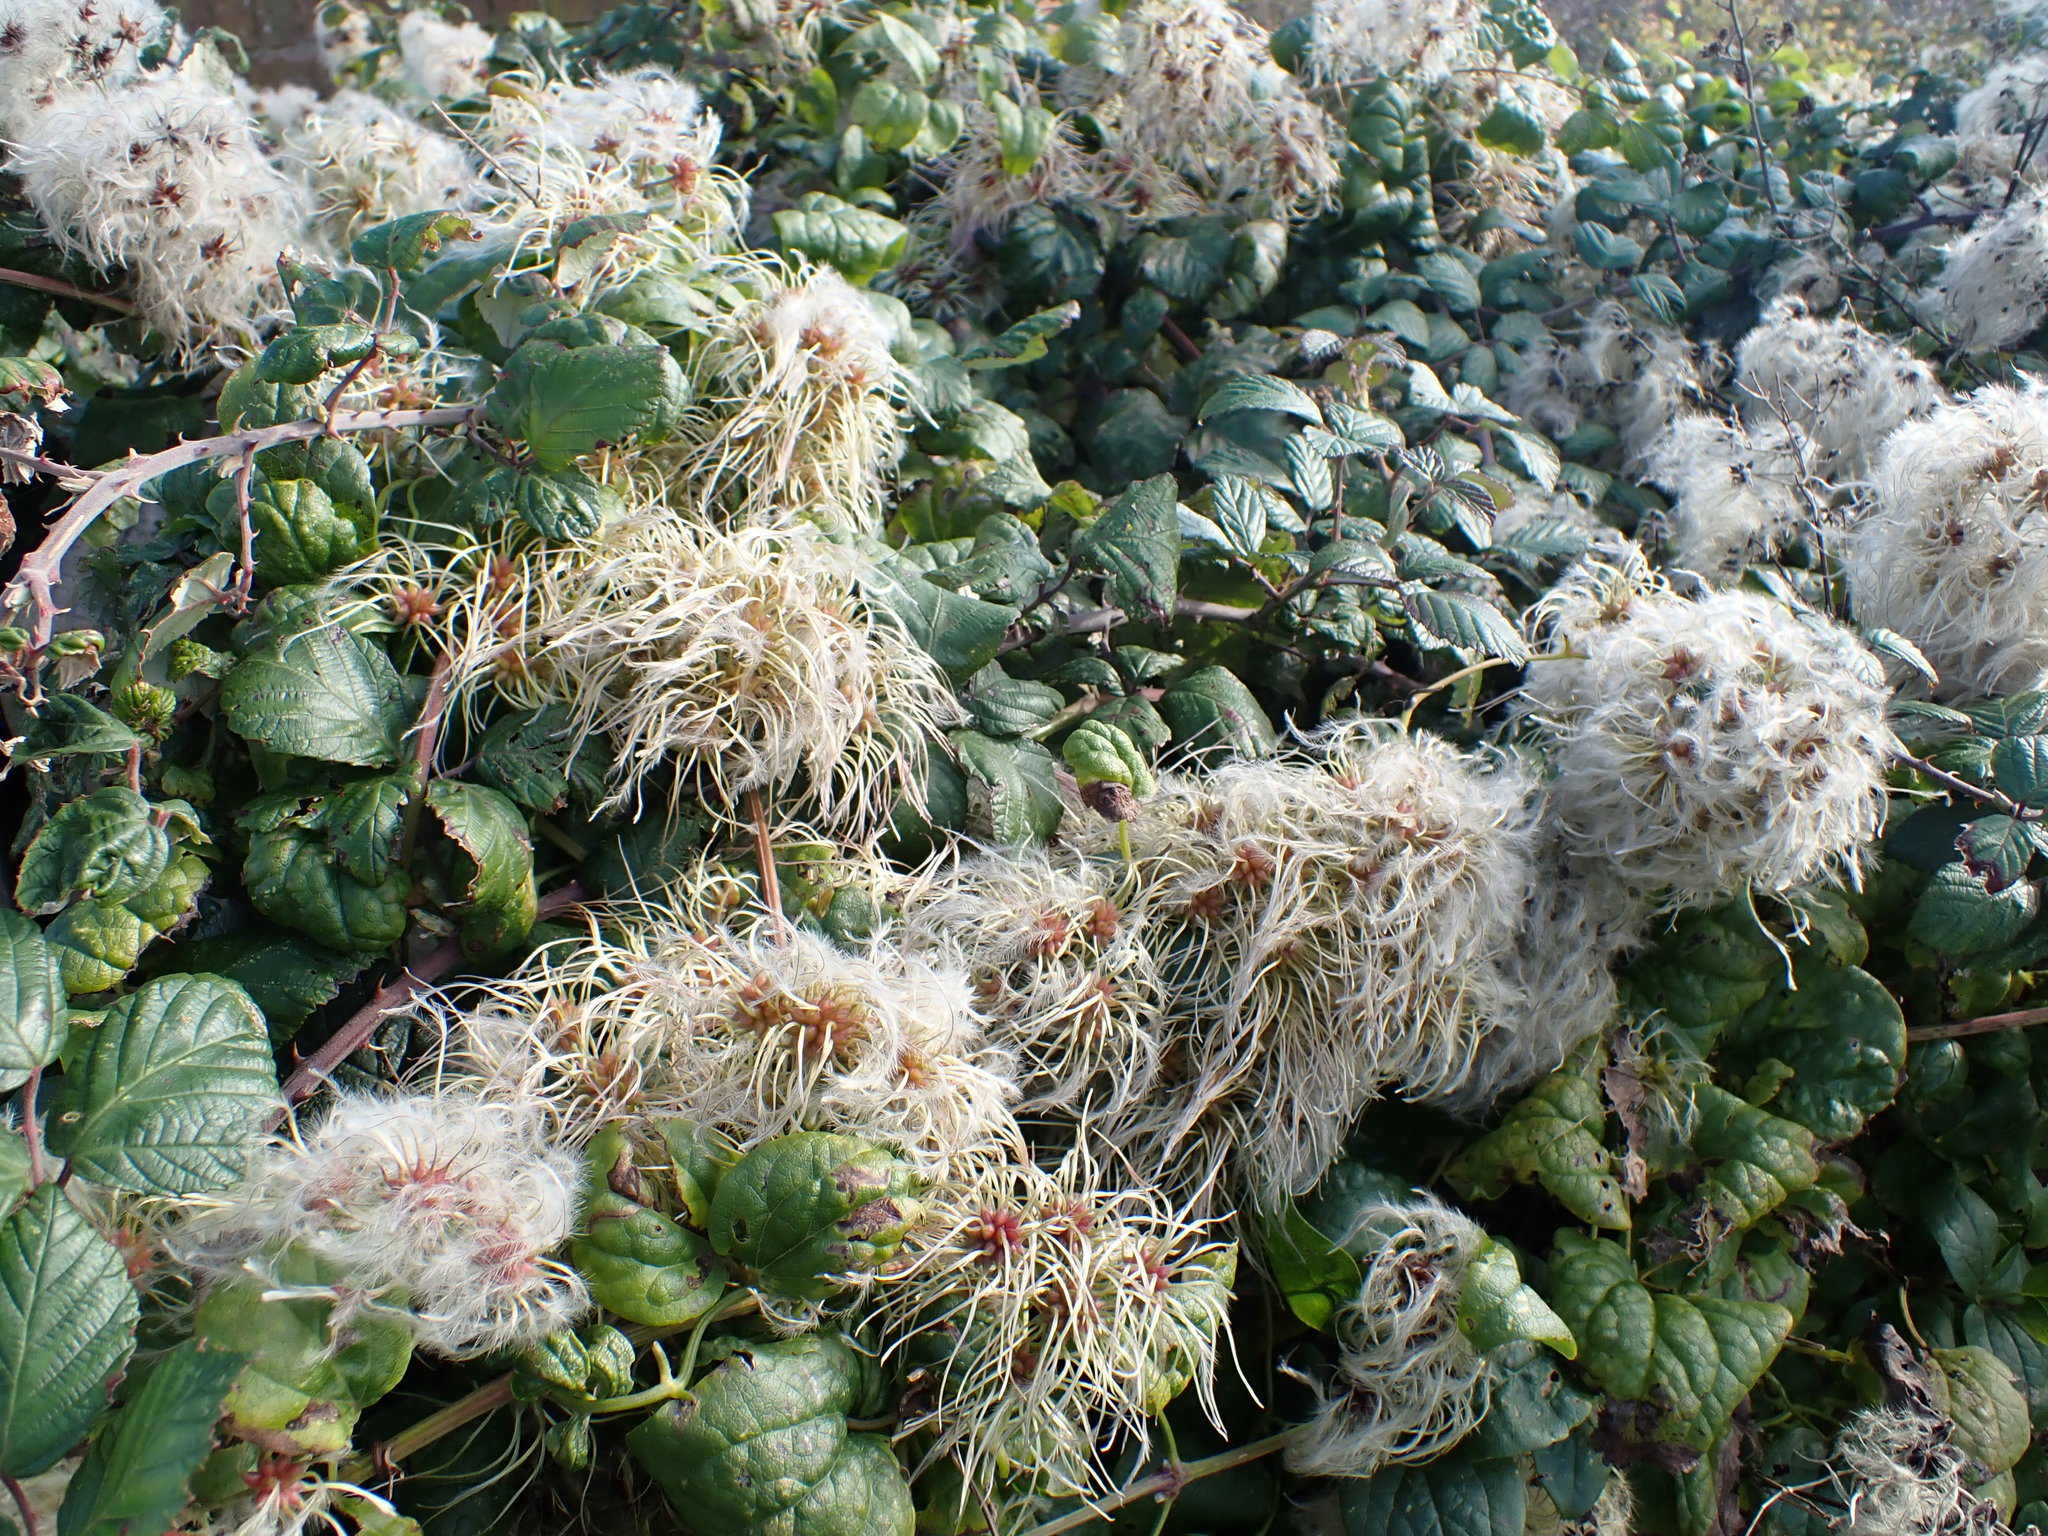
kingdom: Plantae
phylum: Tracheophyta
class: Magnoliopsida
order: Ranunculales
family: Ranunculaceae
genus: Clematis
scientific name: Clematis vitalba
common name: Evergreen clematis
